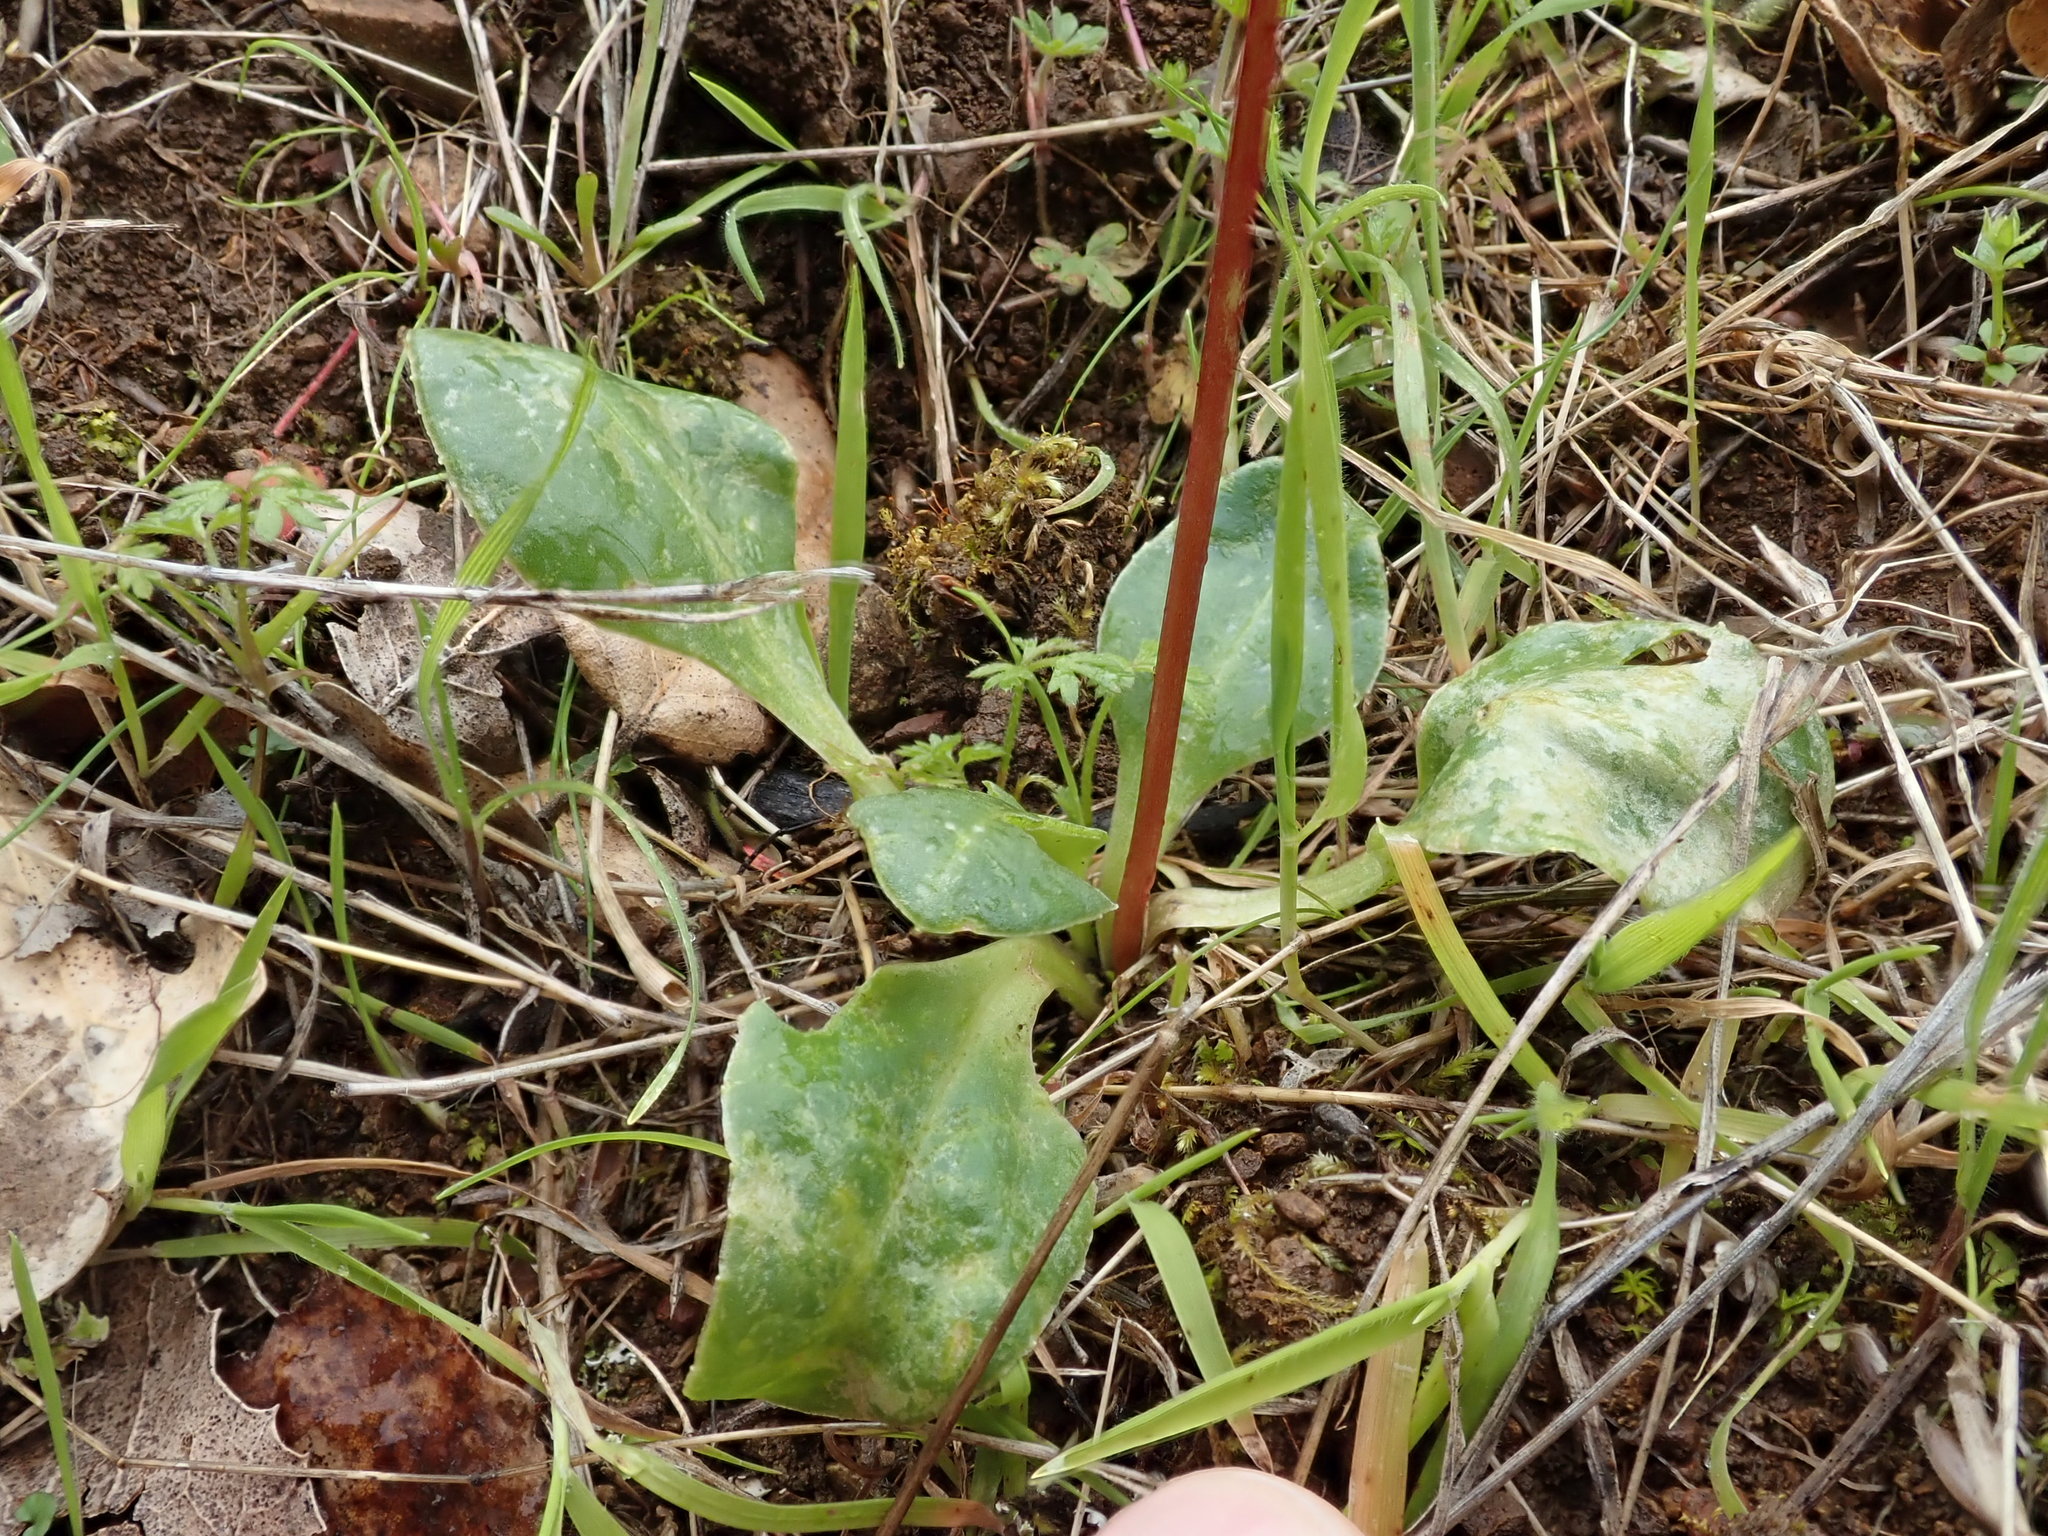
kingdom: Plantae
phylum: Tracheophyta
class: Magnoliopsida
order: Ericales
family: Primulaceae
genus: Dodecatheon
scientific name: Dodecatheon hendersonii
